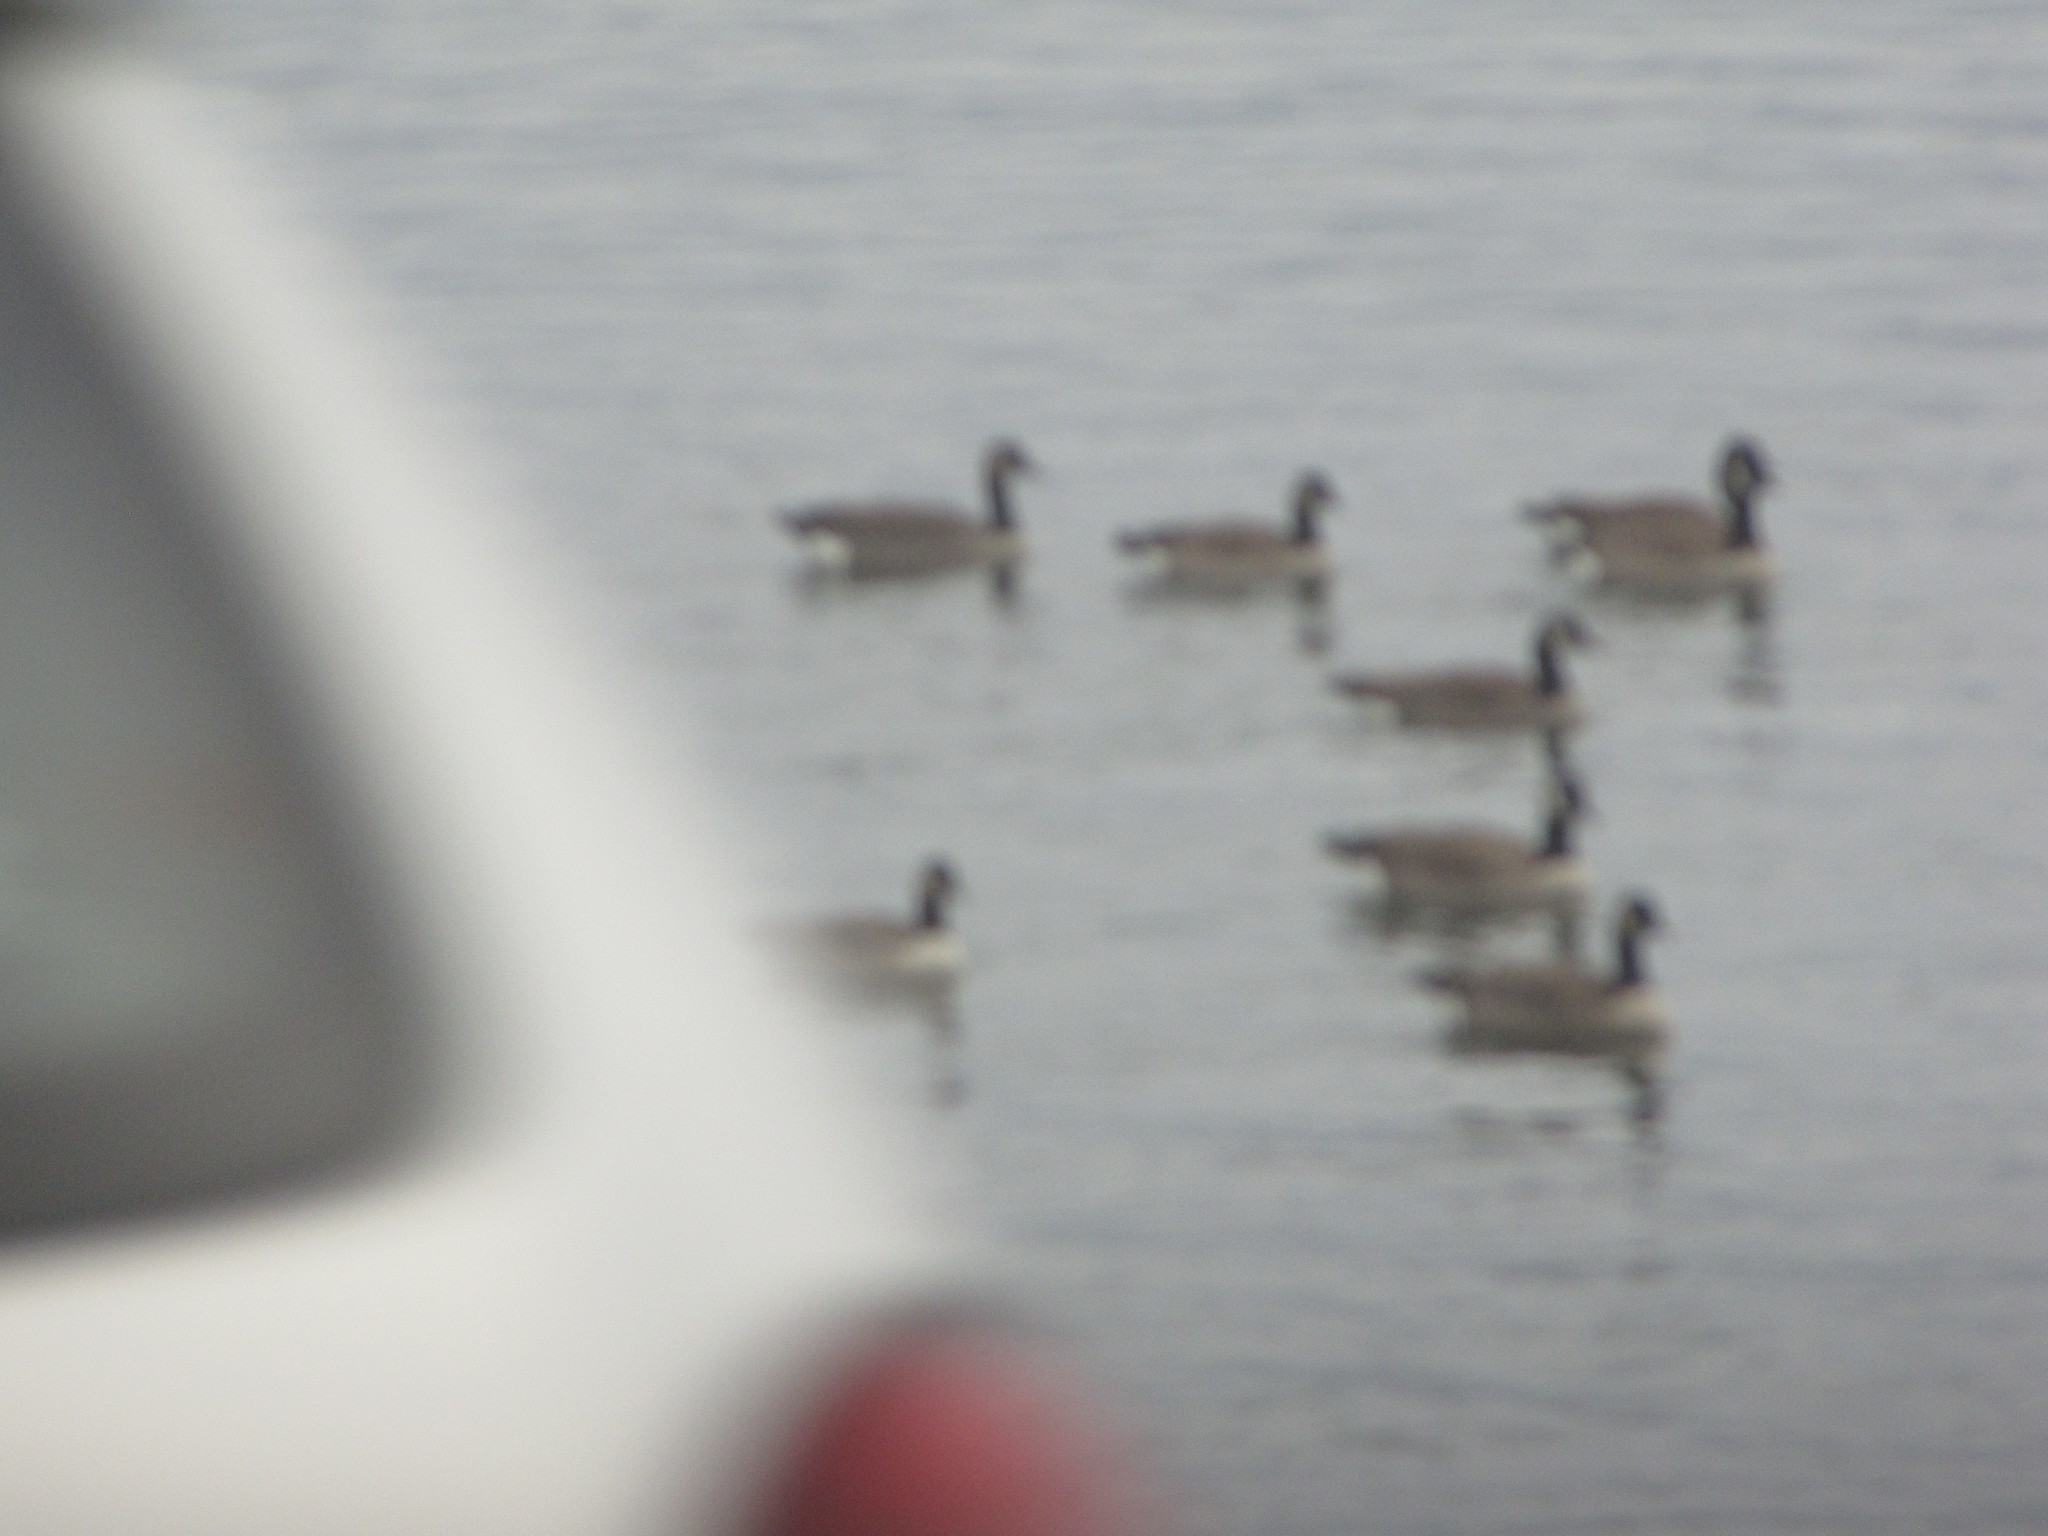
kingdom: Animalia
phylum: Chordata
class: Aves
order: Anseriformes
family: Anatidae
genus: Branta
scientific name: Branta canadensis
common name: Canada goose
